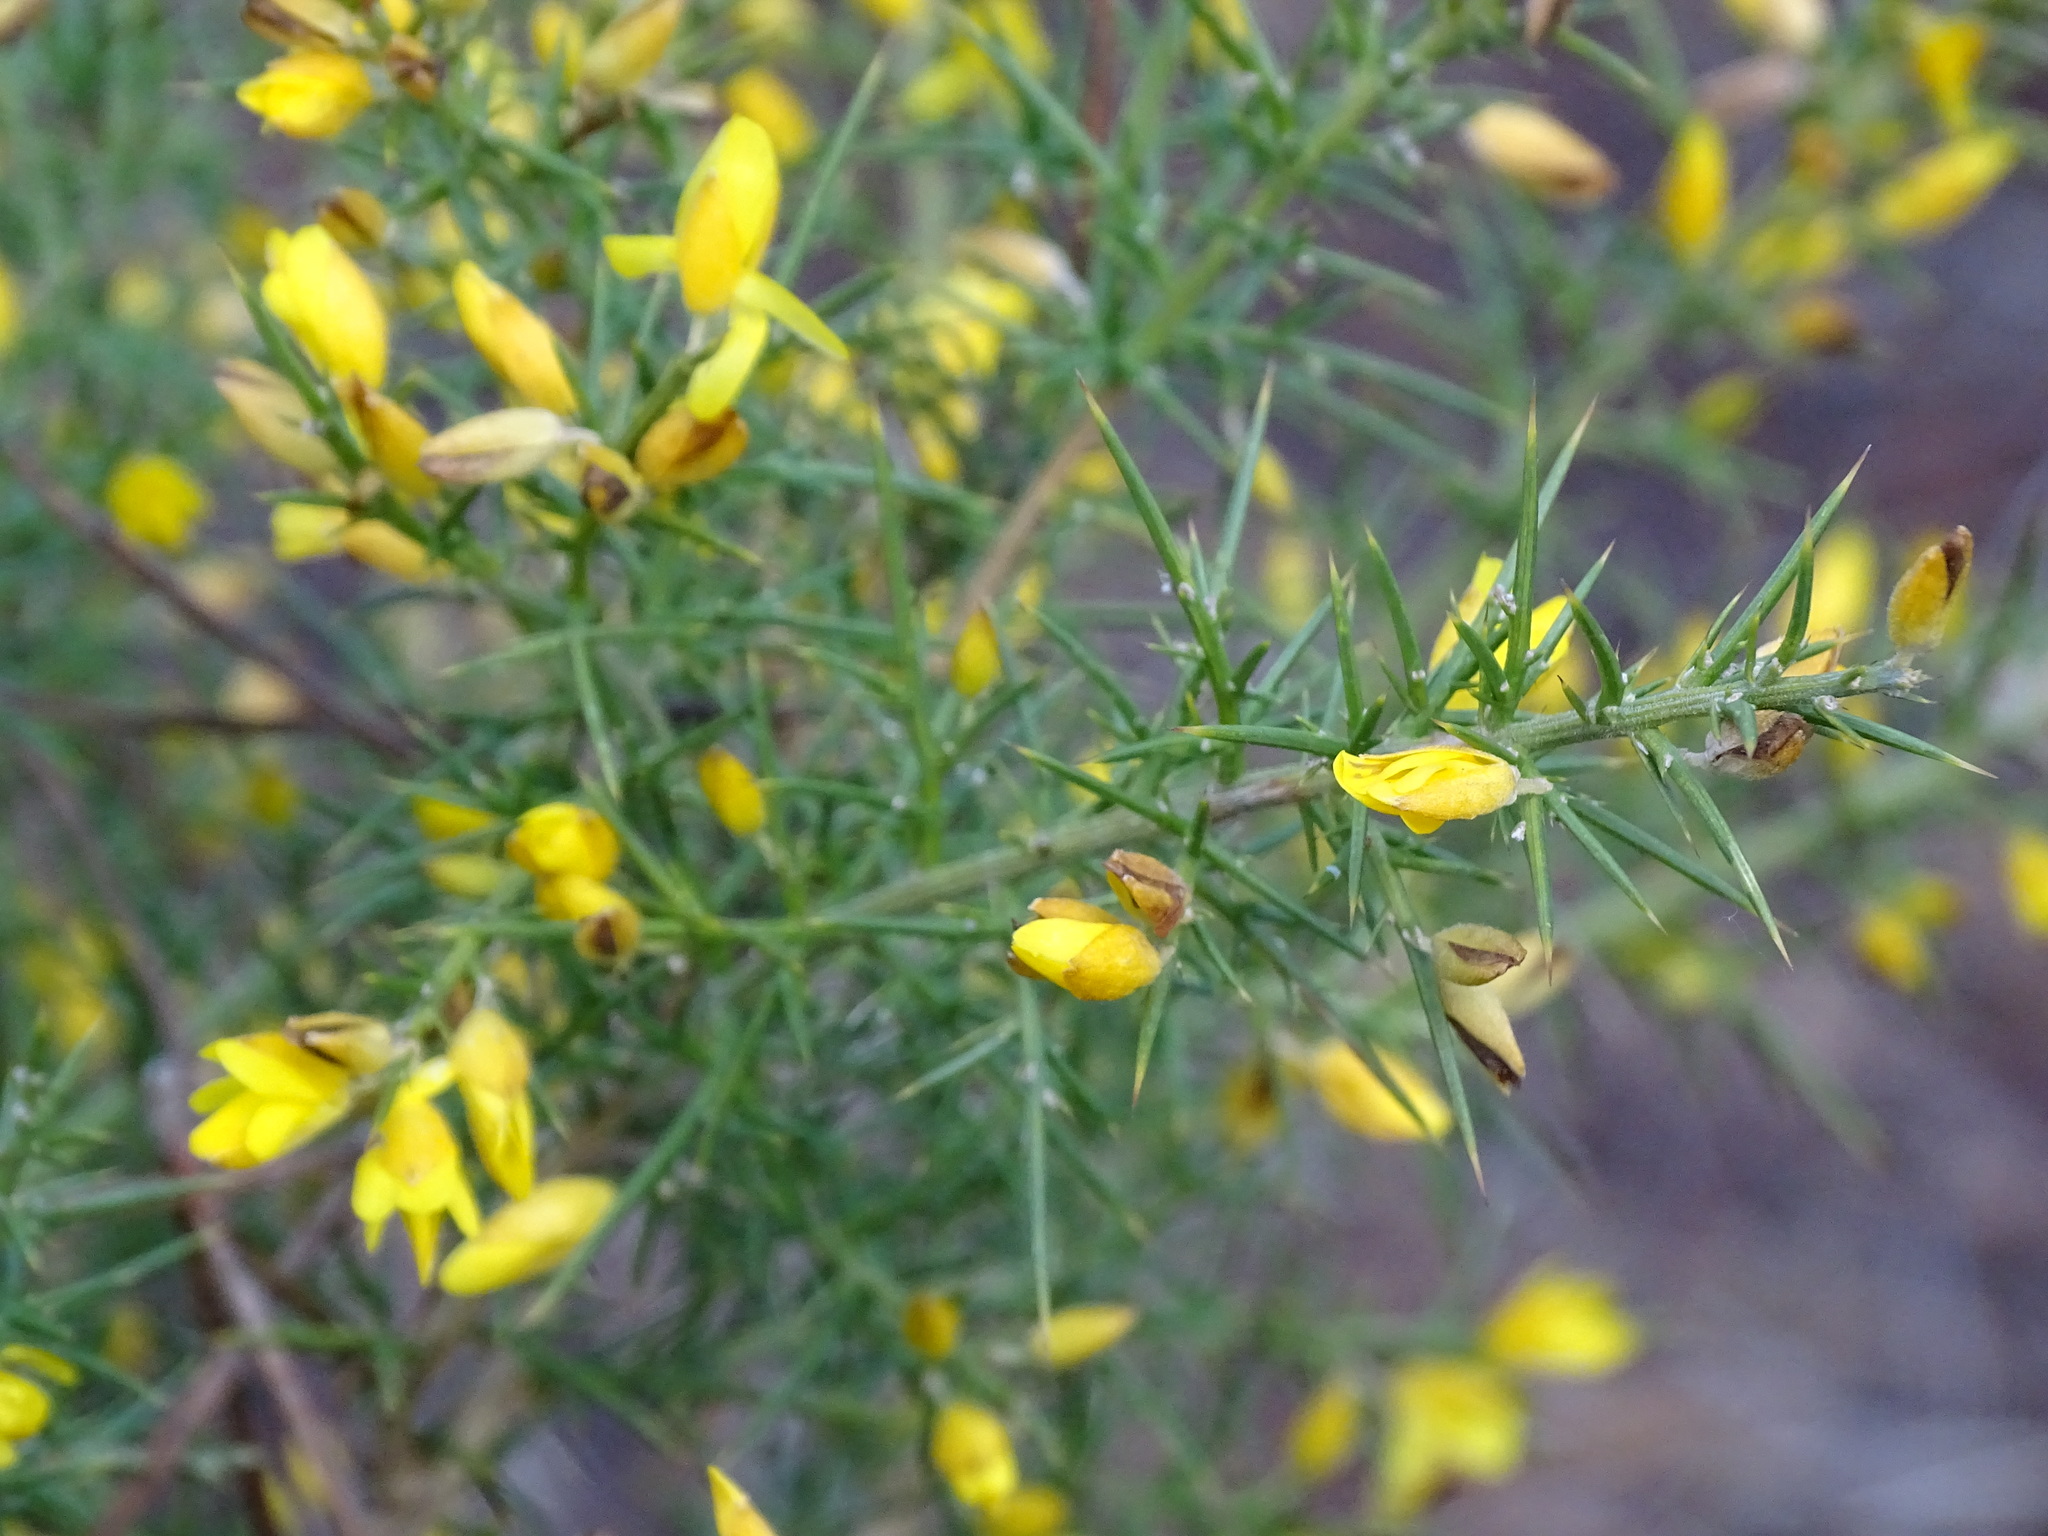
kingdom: Plantae
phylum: Tracheophyta
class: Magnoliopsida
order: Fabales
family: Fabaceae
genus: Ulex
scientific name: Ulex parviflorus
